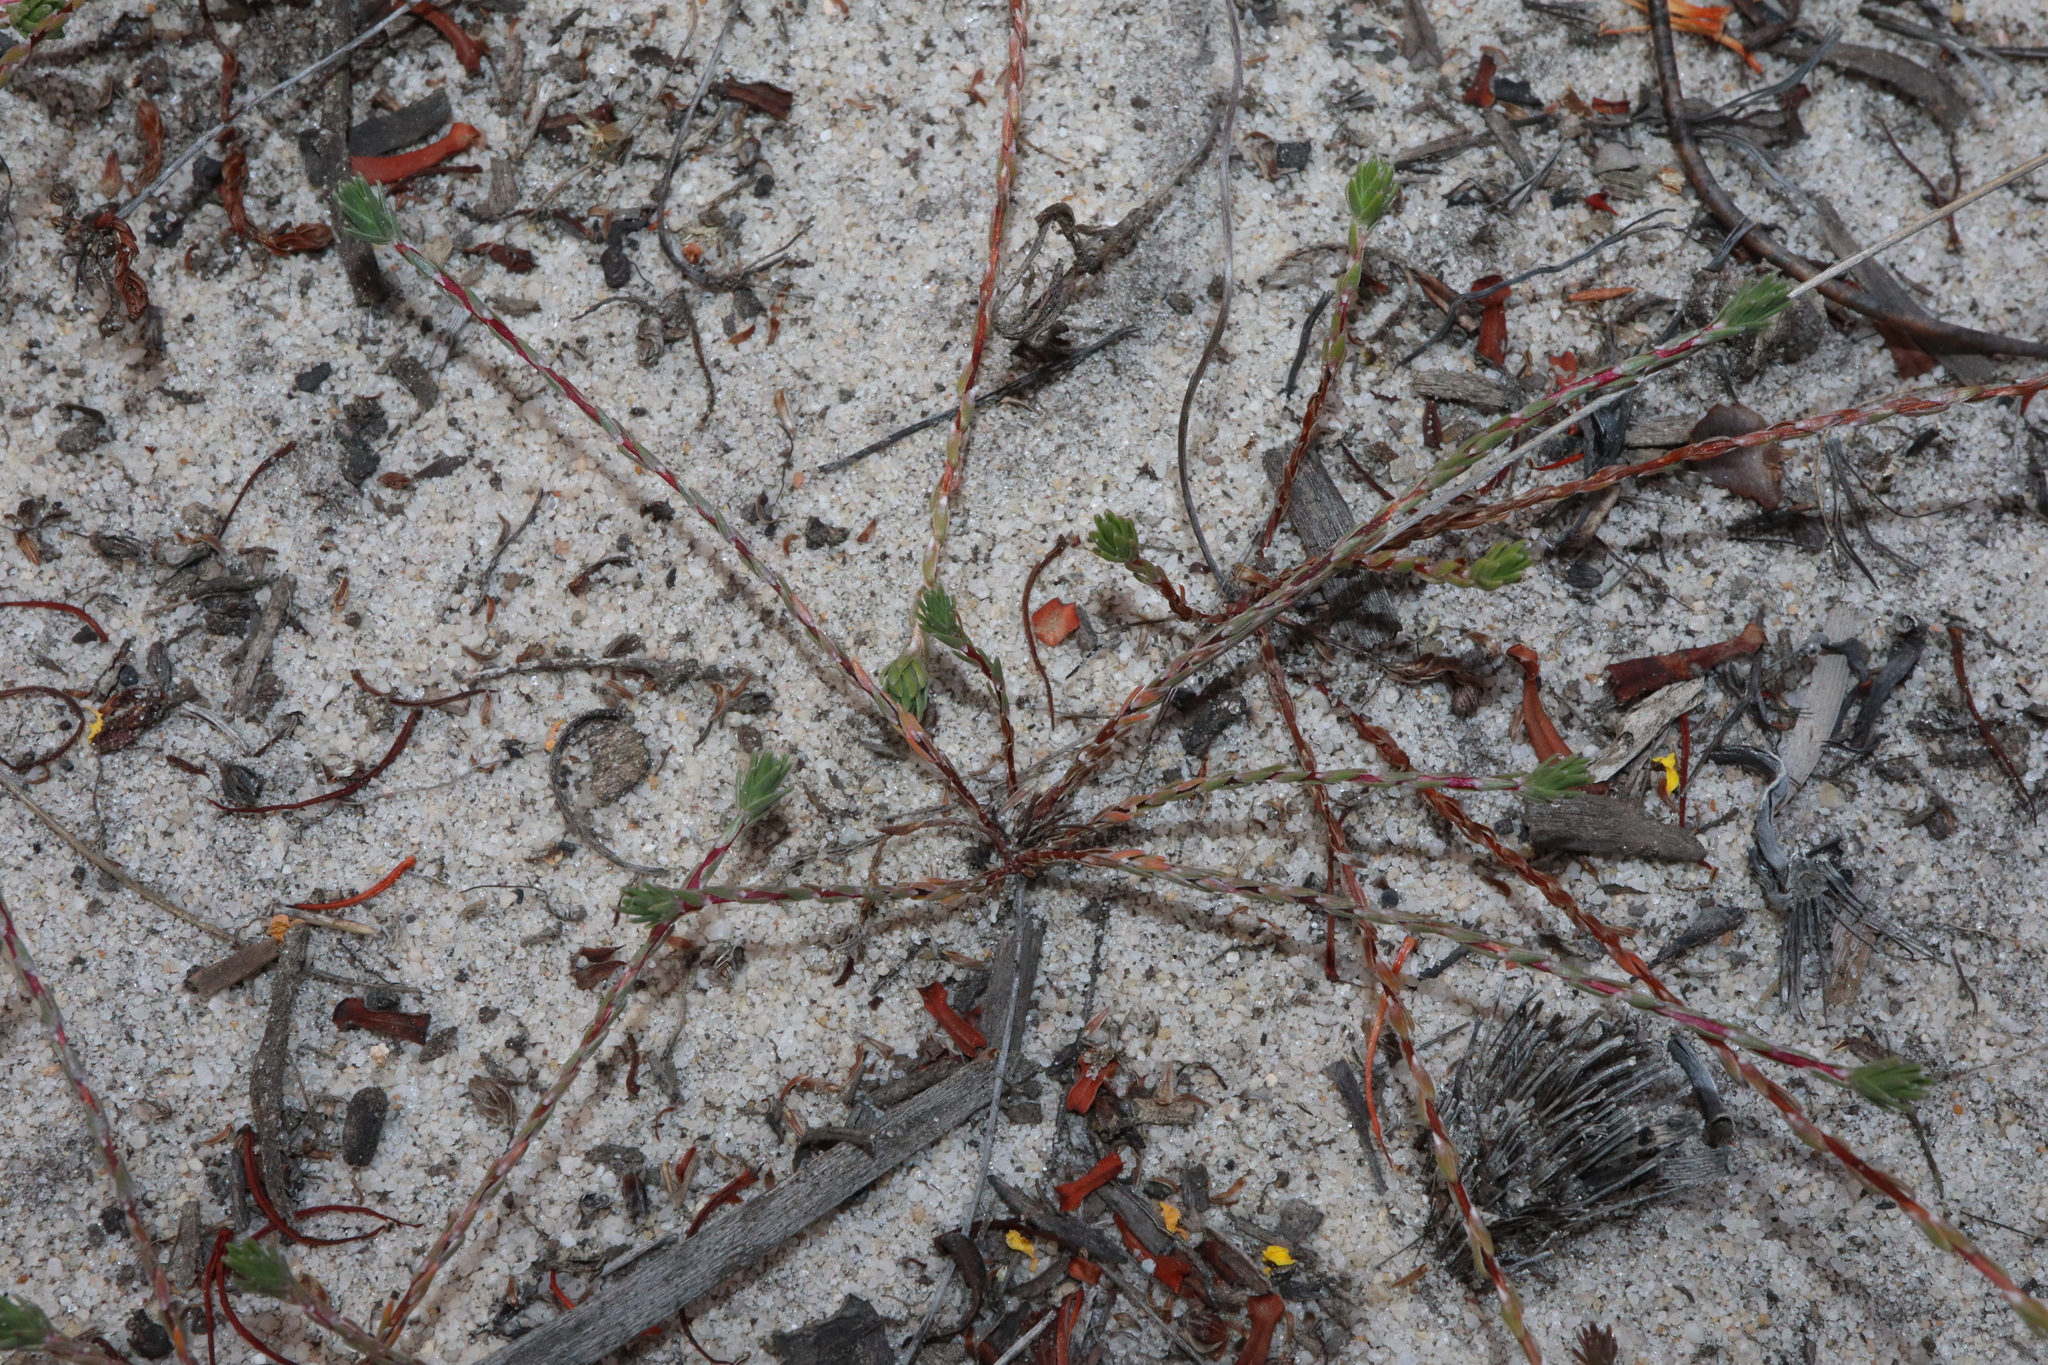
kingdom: Plantae
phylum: Tracheophyta
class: Magnoliopsida
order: Asterales
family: Stylidiaceae
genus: Stylidium
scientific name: Stylidium
